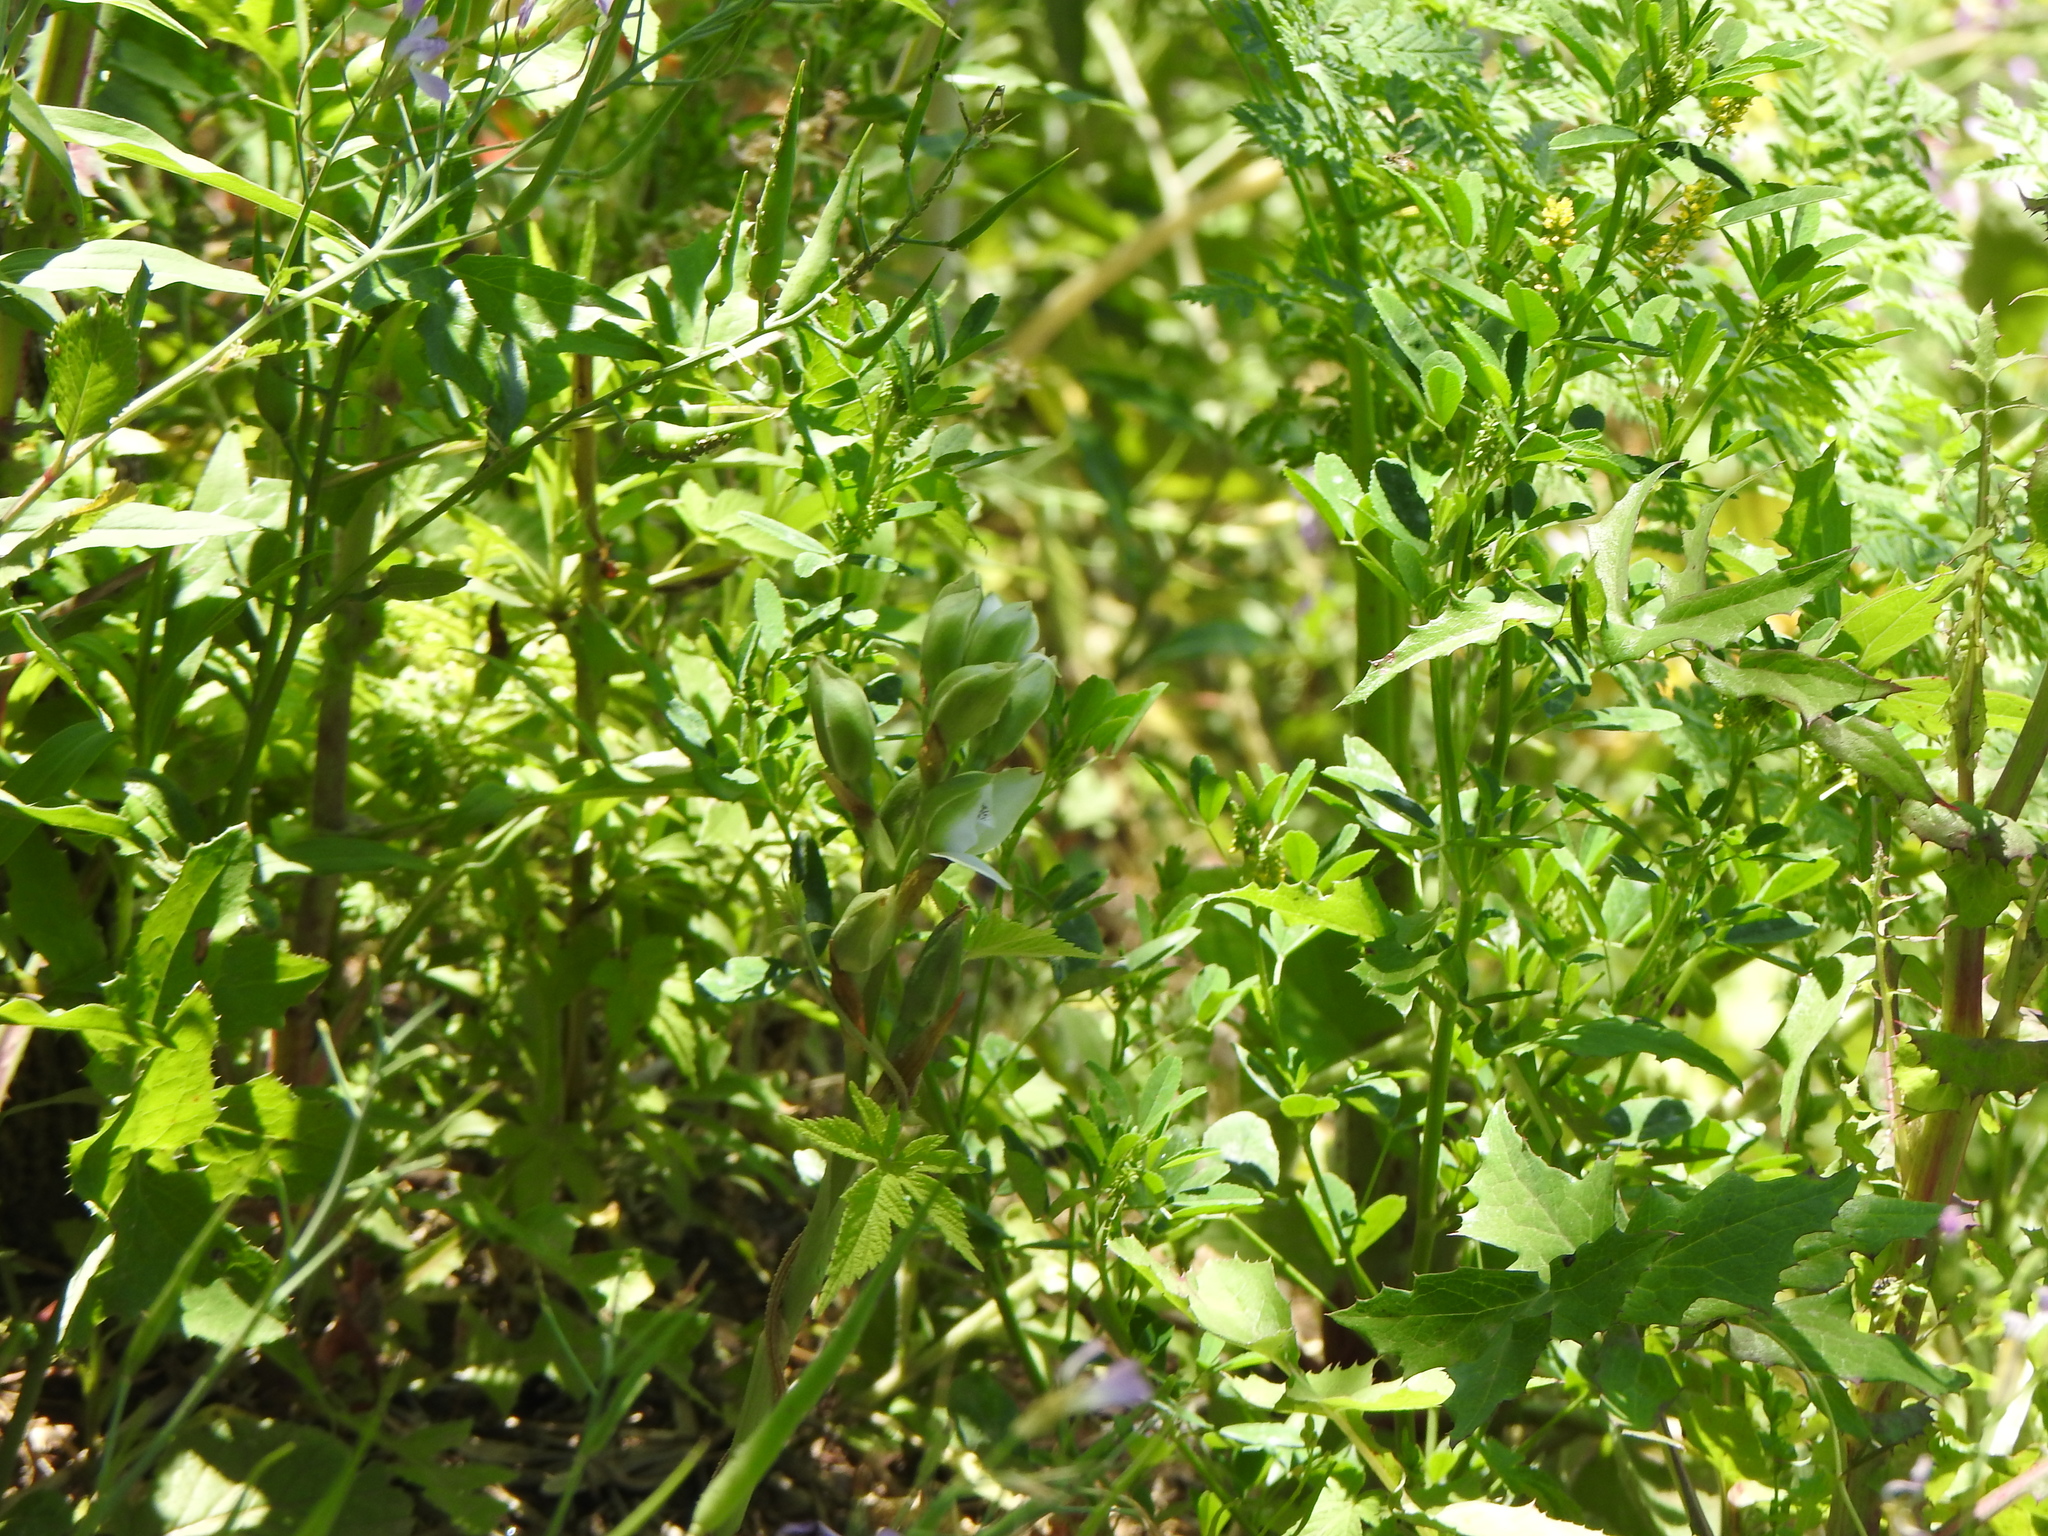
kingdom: Plantae
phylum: Tracheophyta
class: Liliopsida
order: Asparagales
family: Orchidaceae
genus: Chloraea
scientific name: Chloraea membranacea
